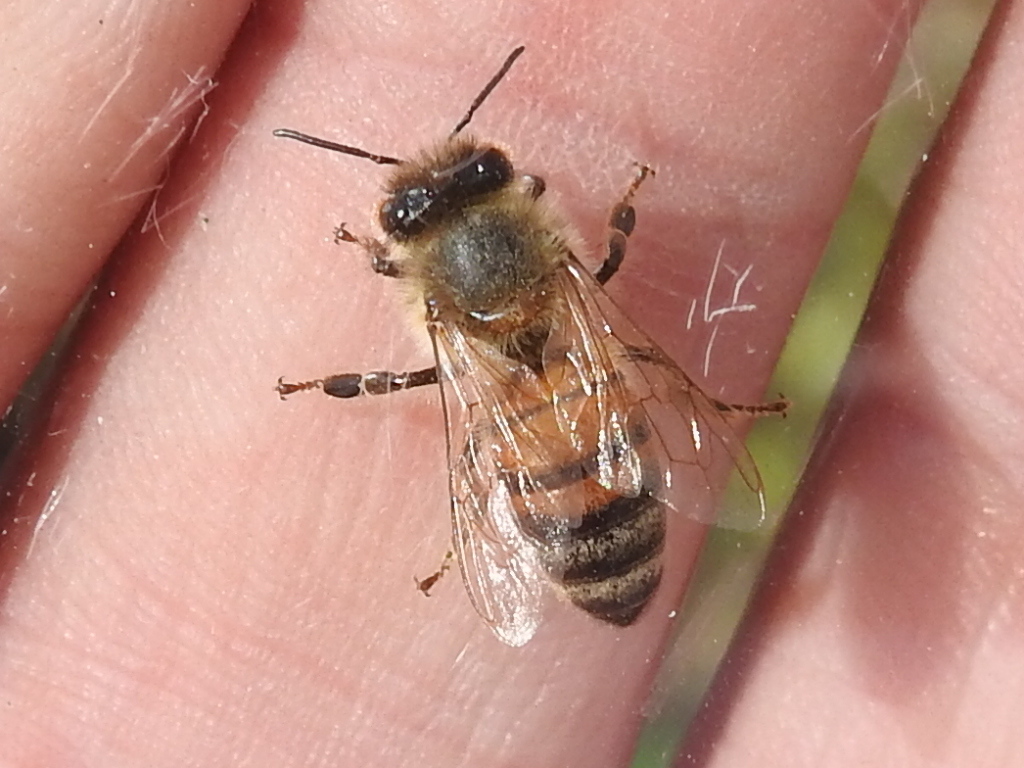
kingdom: Animalia
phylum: Arthropoda
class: Insecta
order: Hymenoptera
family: Apidae
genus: Apis
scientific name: Apis mellifera
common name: Honey bee
